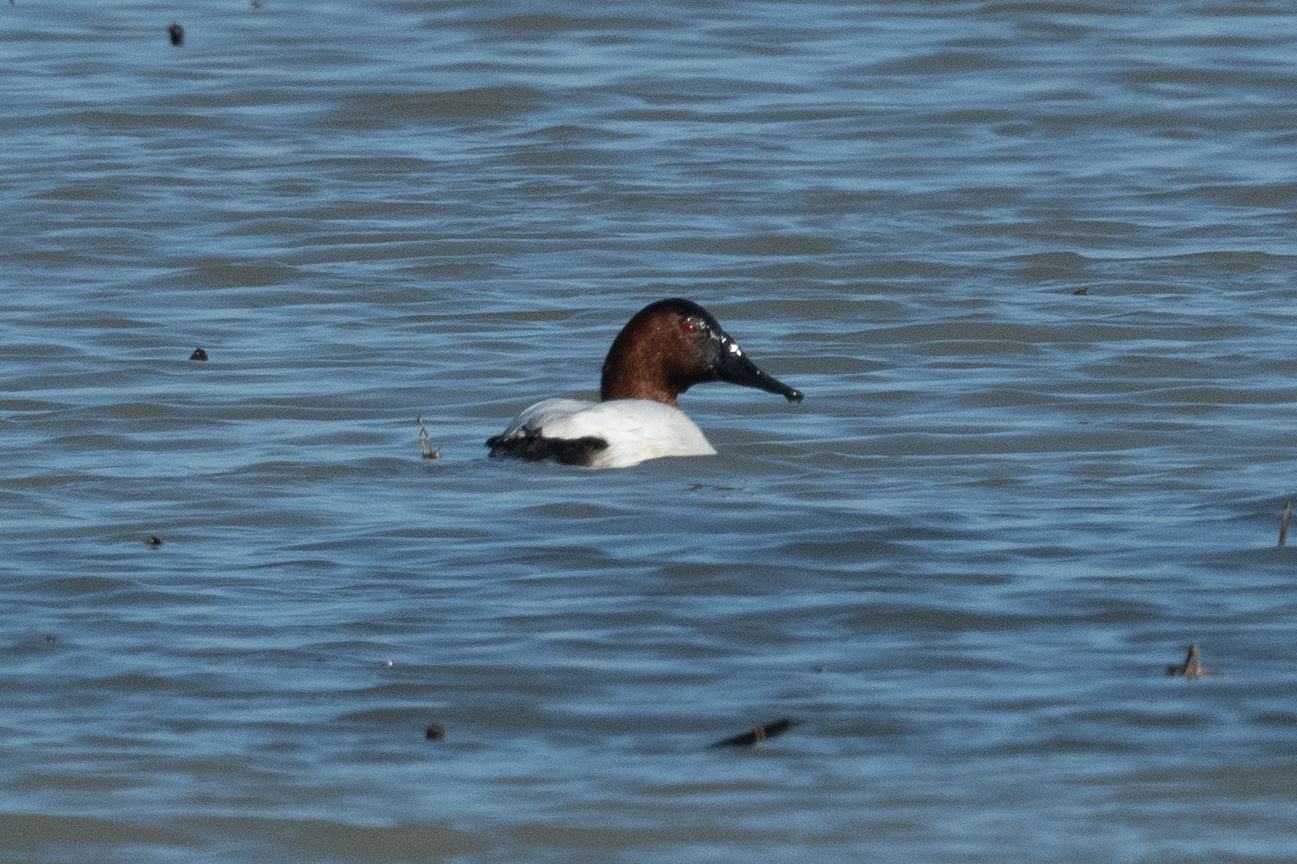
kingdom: Animalia
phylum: Chordata
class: Aves
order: Anseriformes
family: Anatidae
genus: Aythya
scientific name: Aythya valisineria
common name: Canvasback
